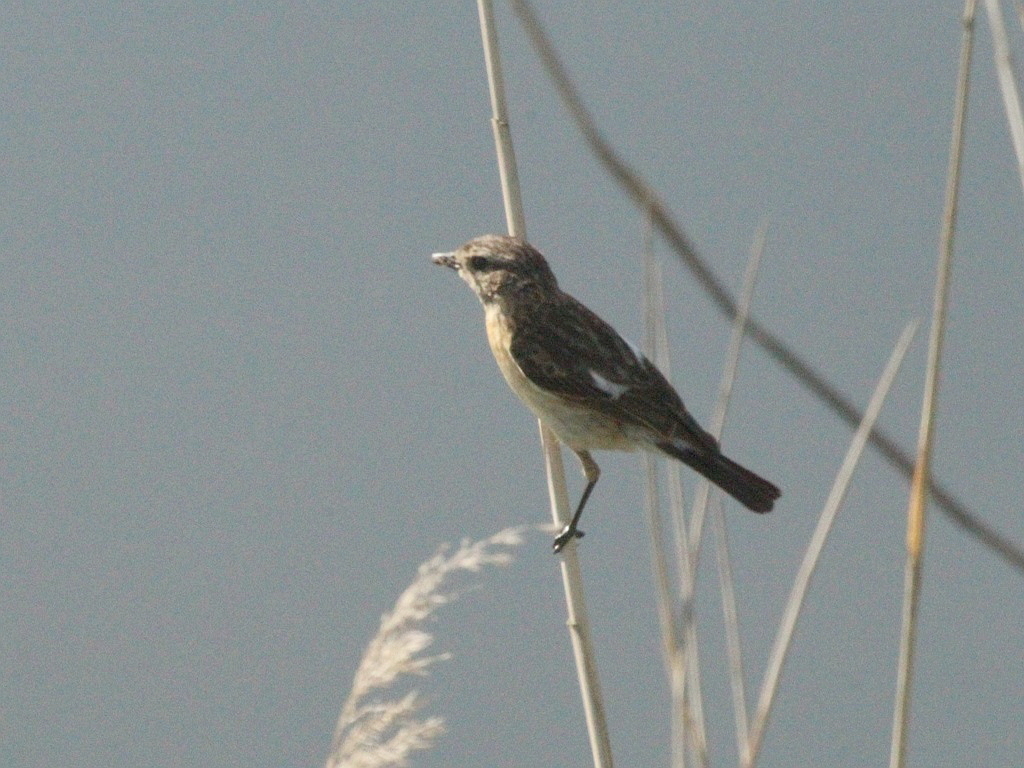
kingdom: Animalia
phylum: Chordata
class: Aves
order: Passeriformes
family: Muscicapidae
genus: Saxicola
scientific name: Saxicola maurus
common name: Siberian stonechat
